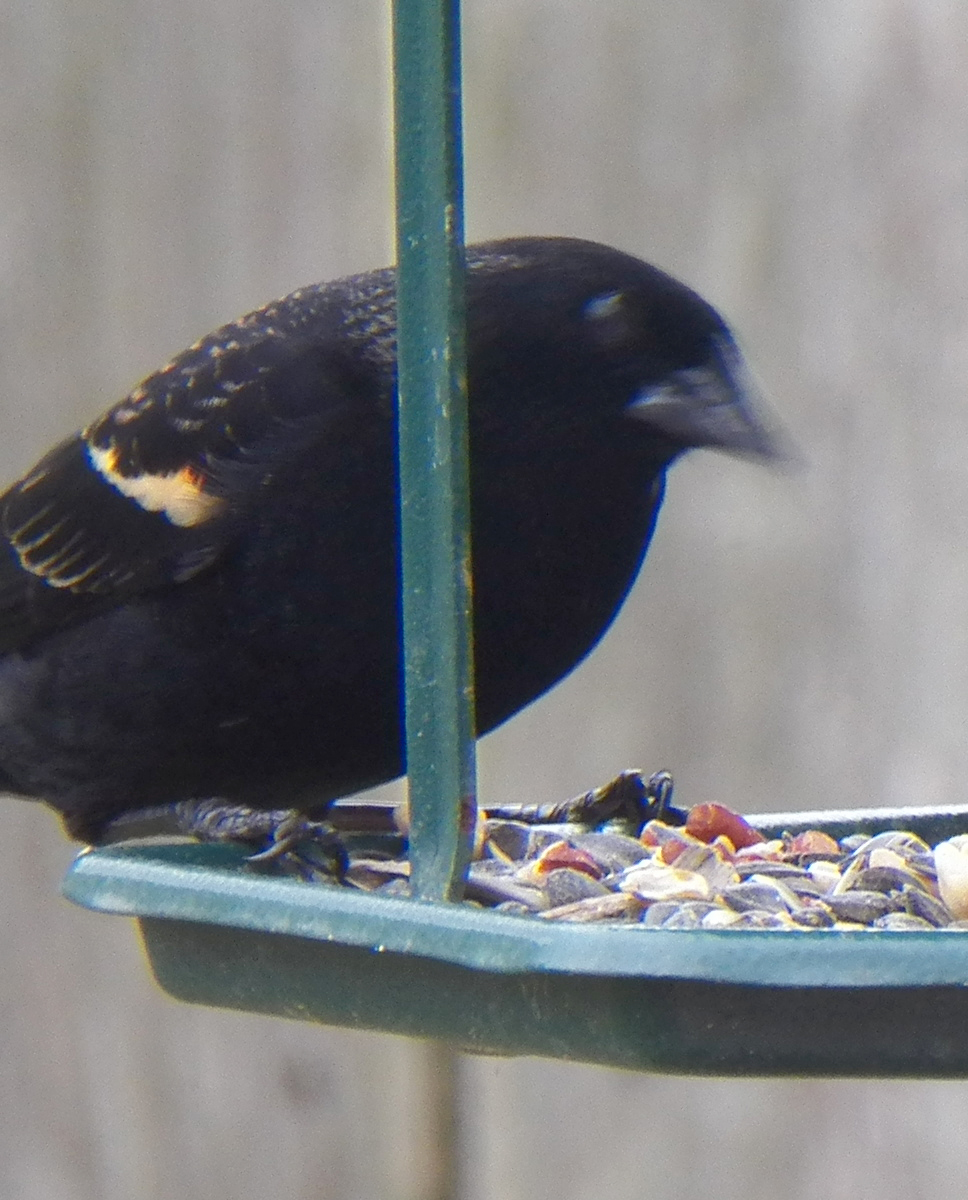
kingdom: Animalia
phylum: Chordata
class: Aves
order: Passeriformes
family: Icteridae
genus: Agelaius
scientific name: Agelaius phoeniceus
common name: Red-winged blackbird
